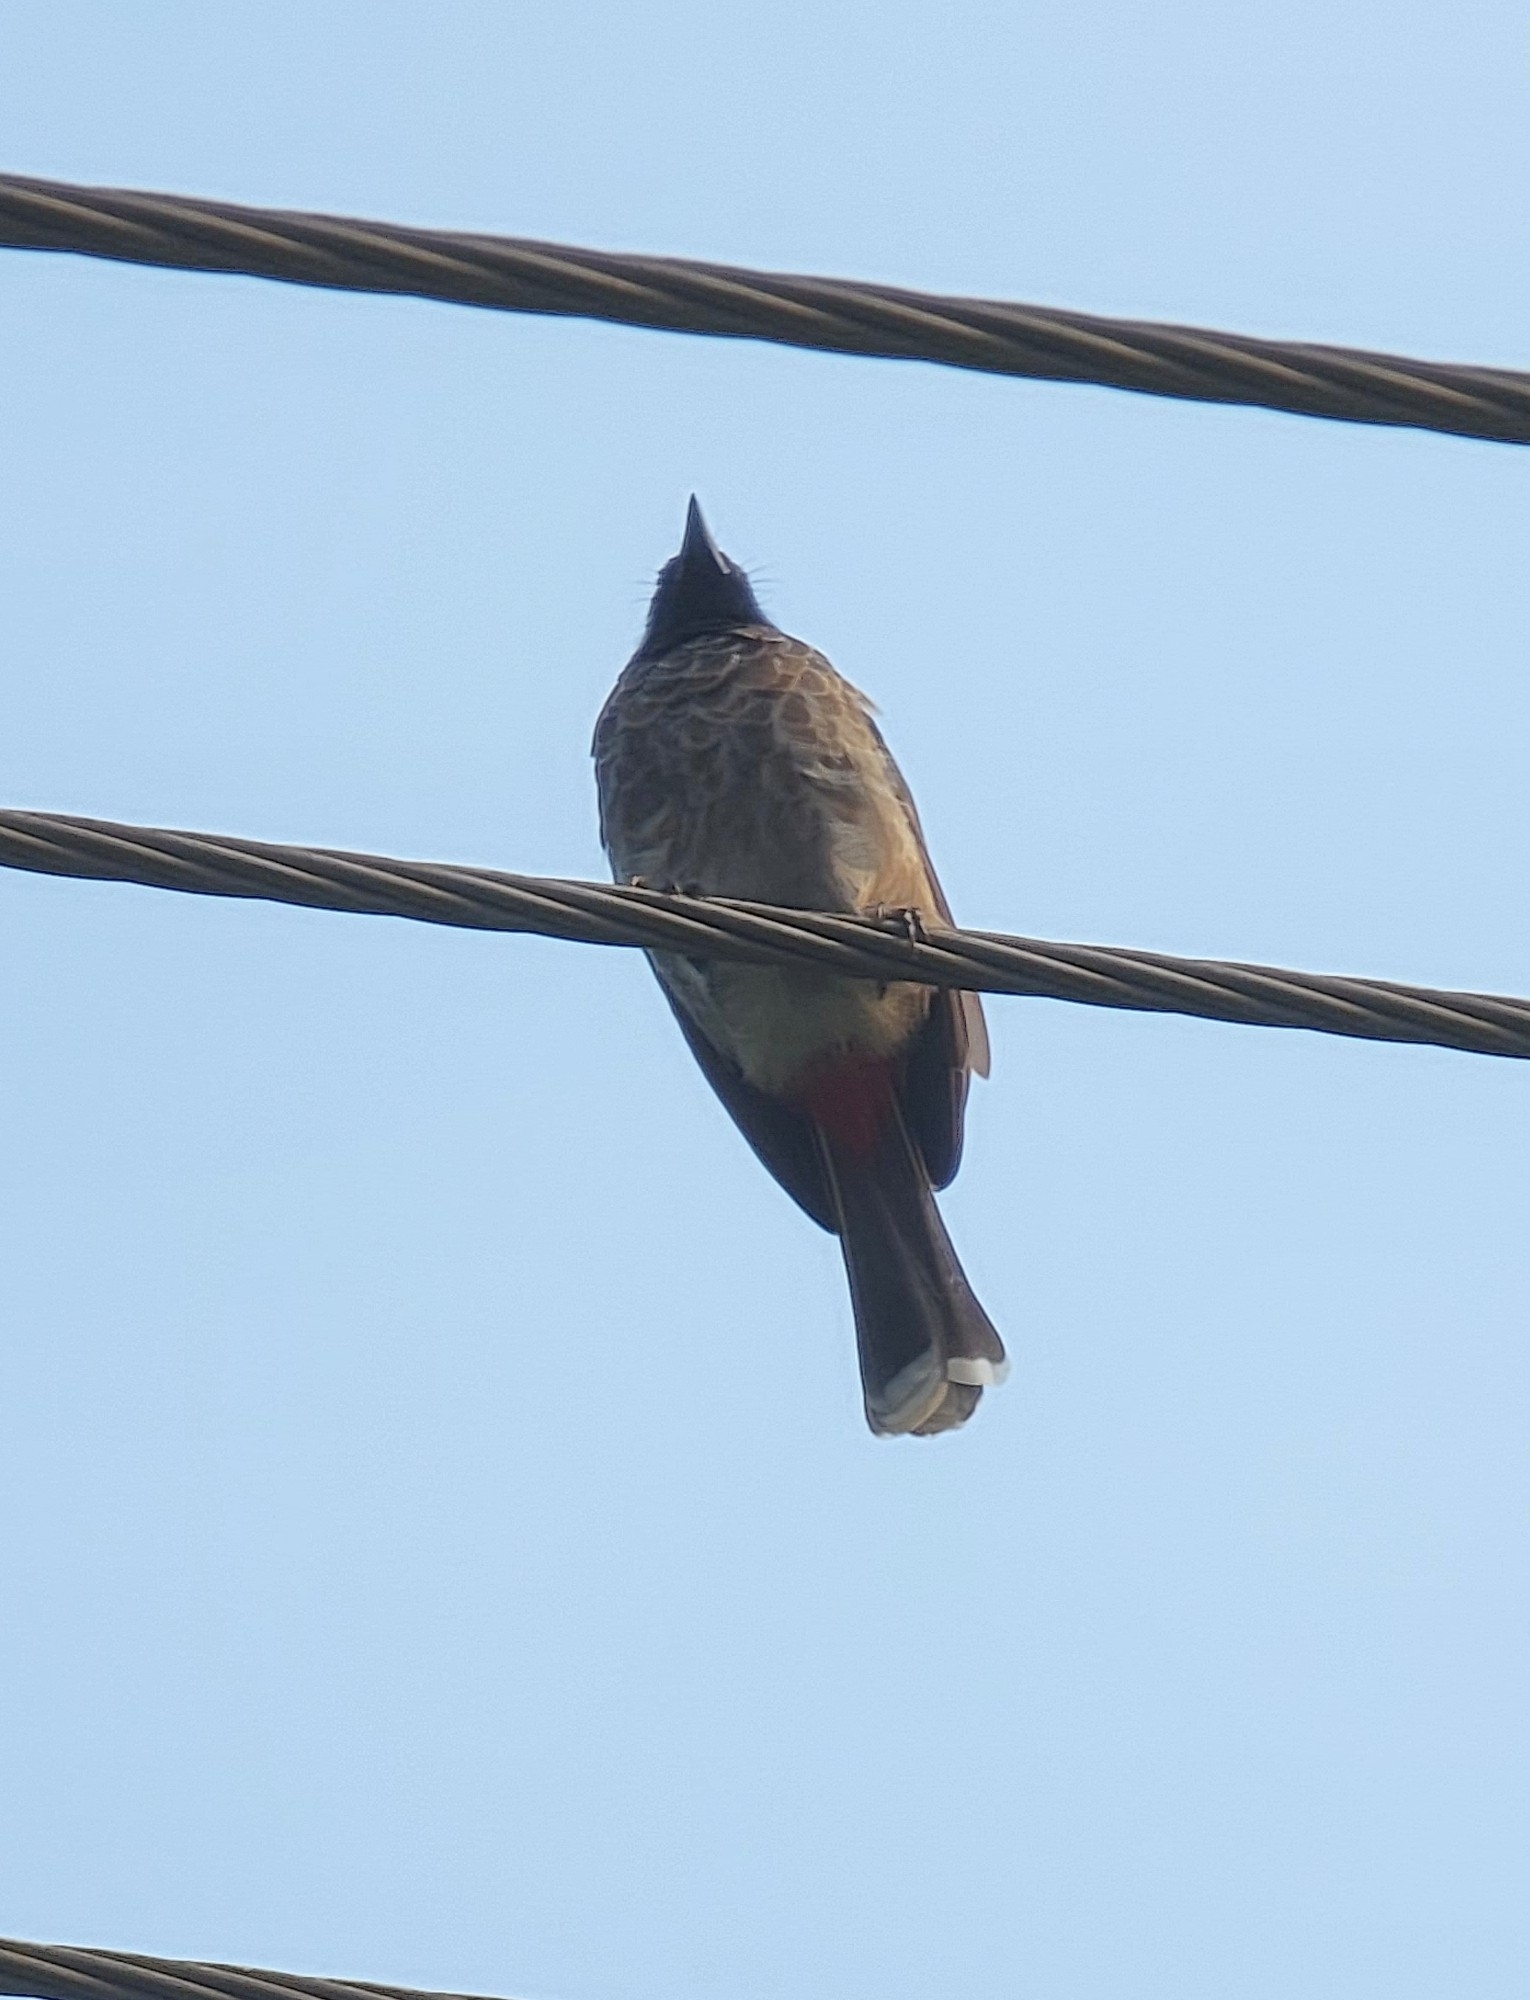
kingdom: Animalia
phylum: Chordata
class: Aves
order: Passeriformes
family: Pycnonotidae
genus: Pycnonotus
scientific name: Pycnonotus cafer
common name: Red-vented bulbul
